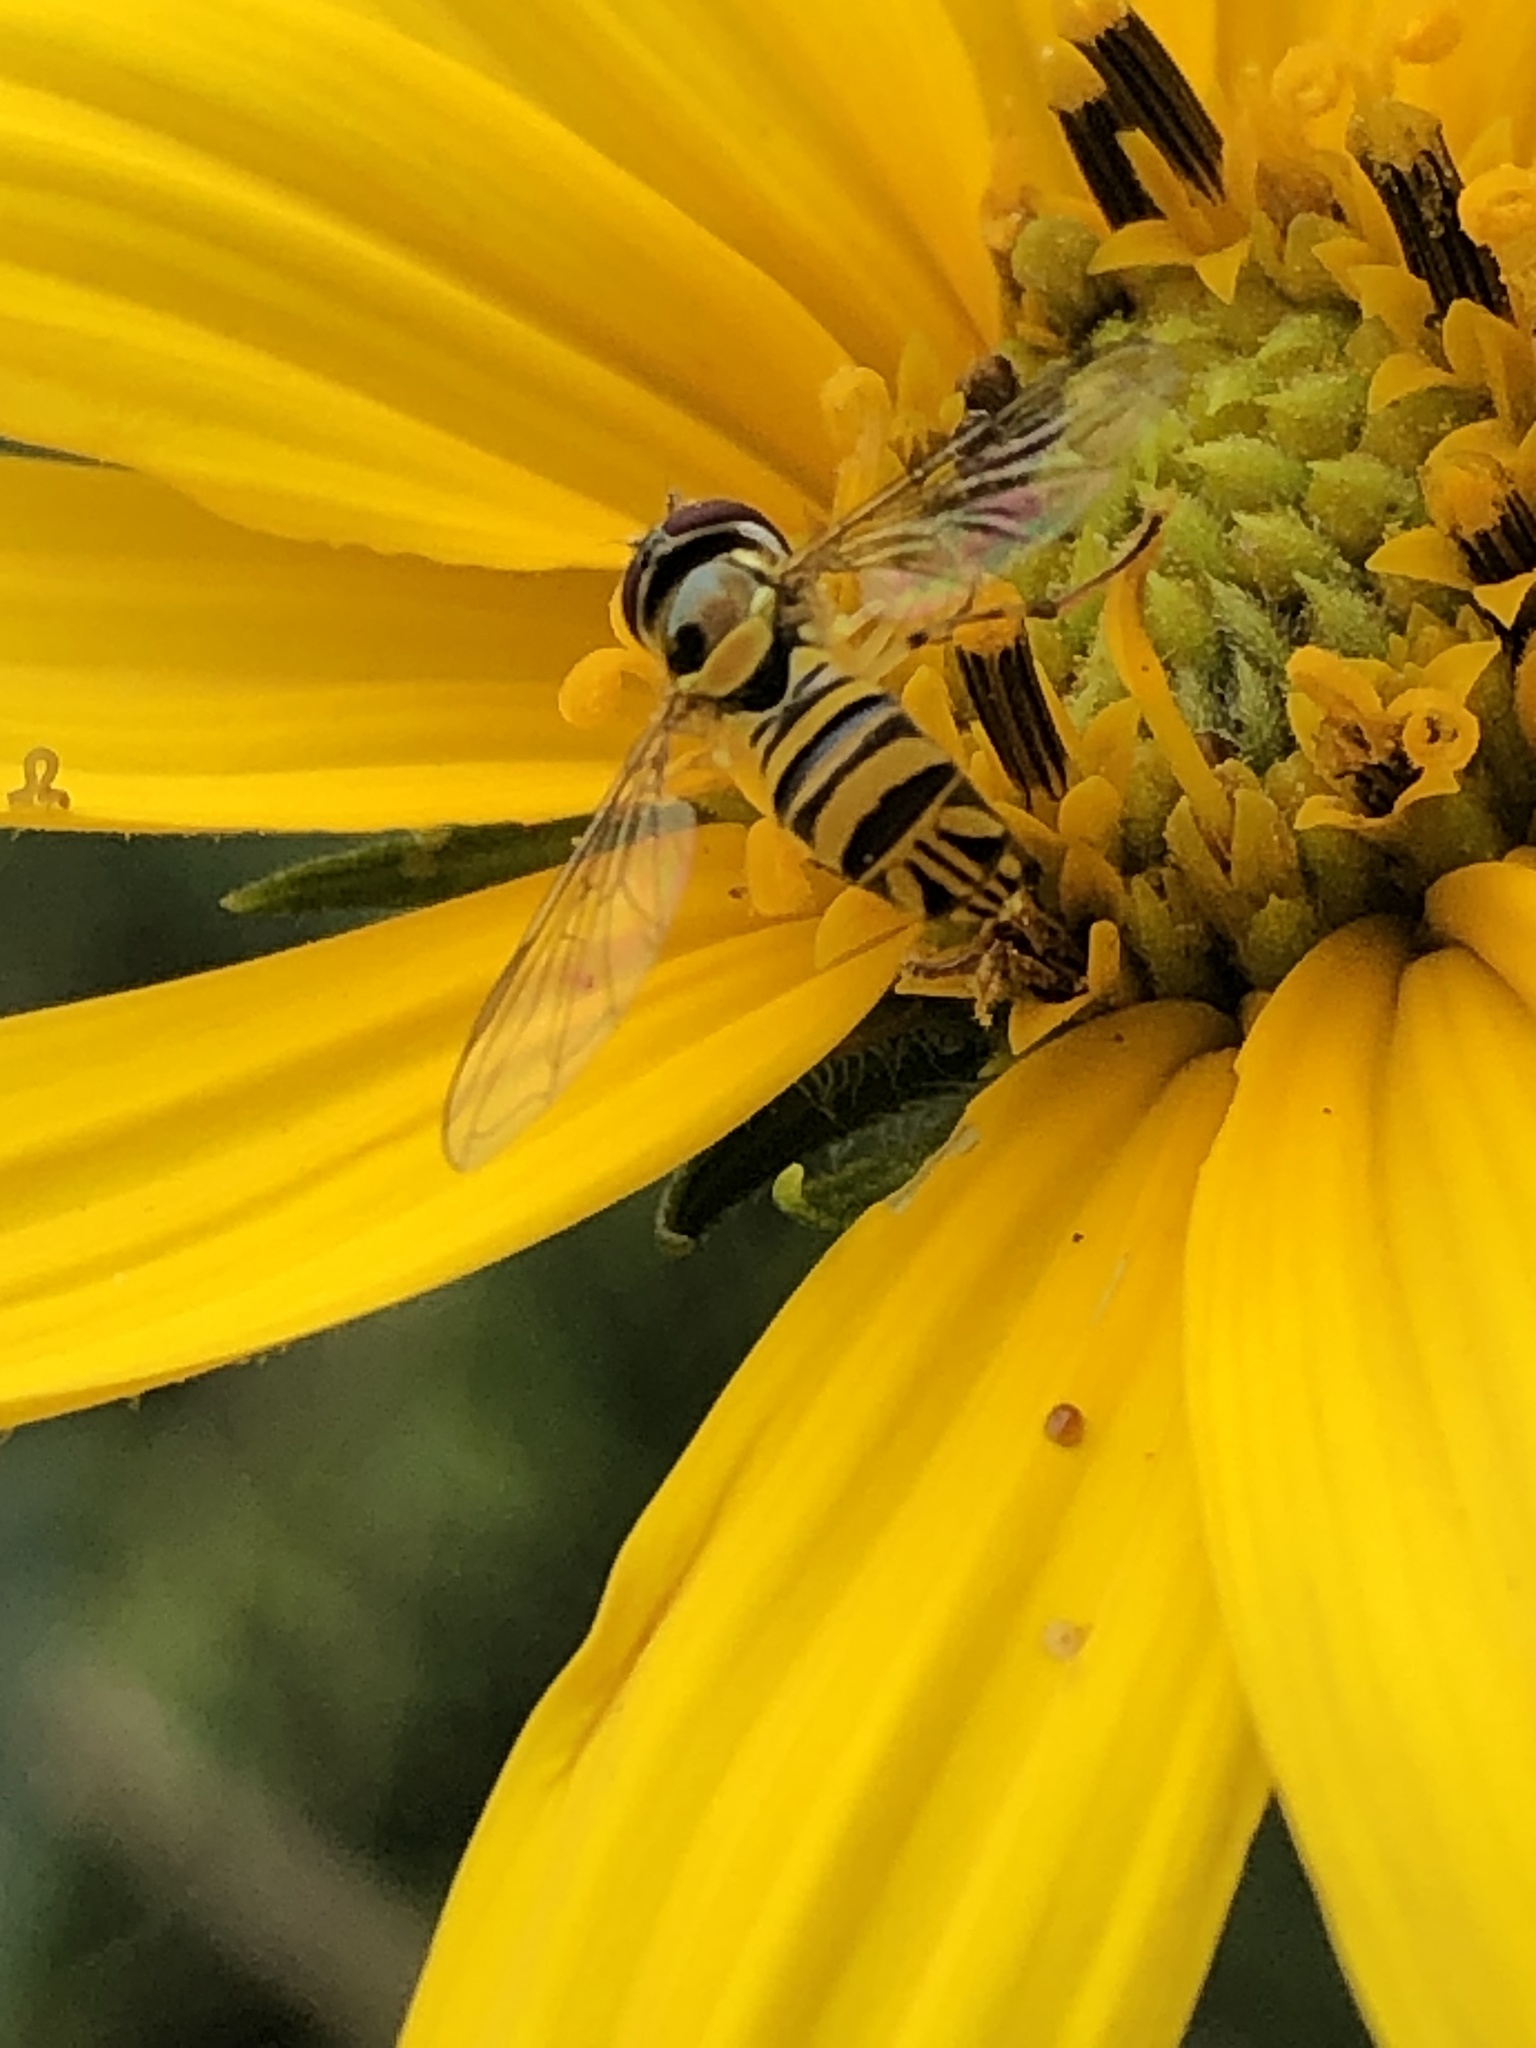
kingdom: Animalia
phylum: Arthropoda
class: Insecta
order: Diptera
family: Syrphidae
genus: Allograpta
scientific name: Allograpta obliqua
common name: Common oblique syrphid
